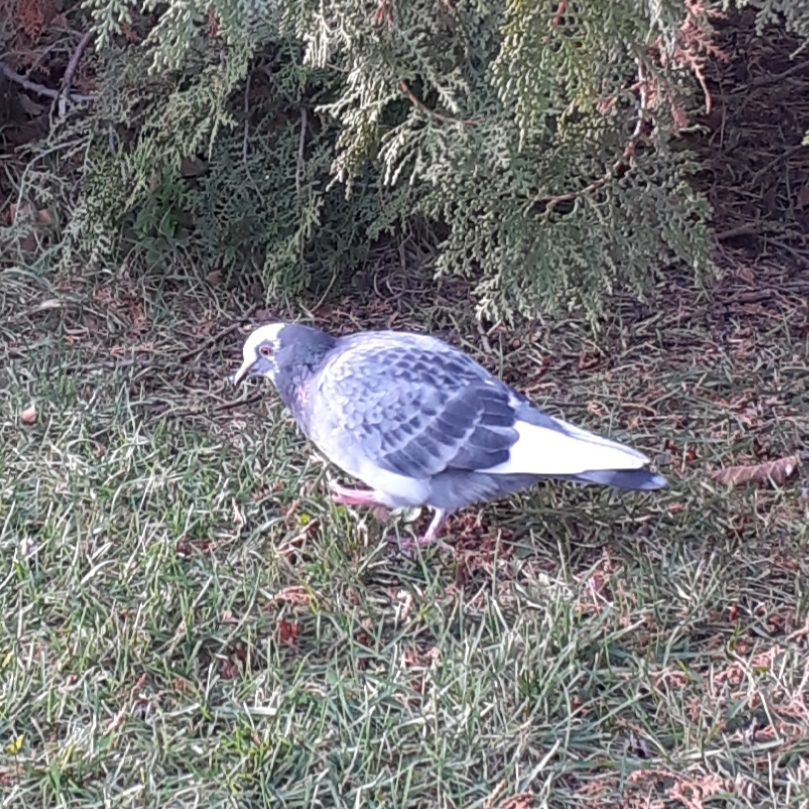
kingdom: Animalia
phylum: Chordata
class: Aves
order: Columbiformes
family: Columbidae
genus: Columba
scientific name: Columba livia
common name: Rock pigeon
